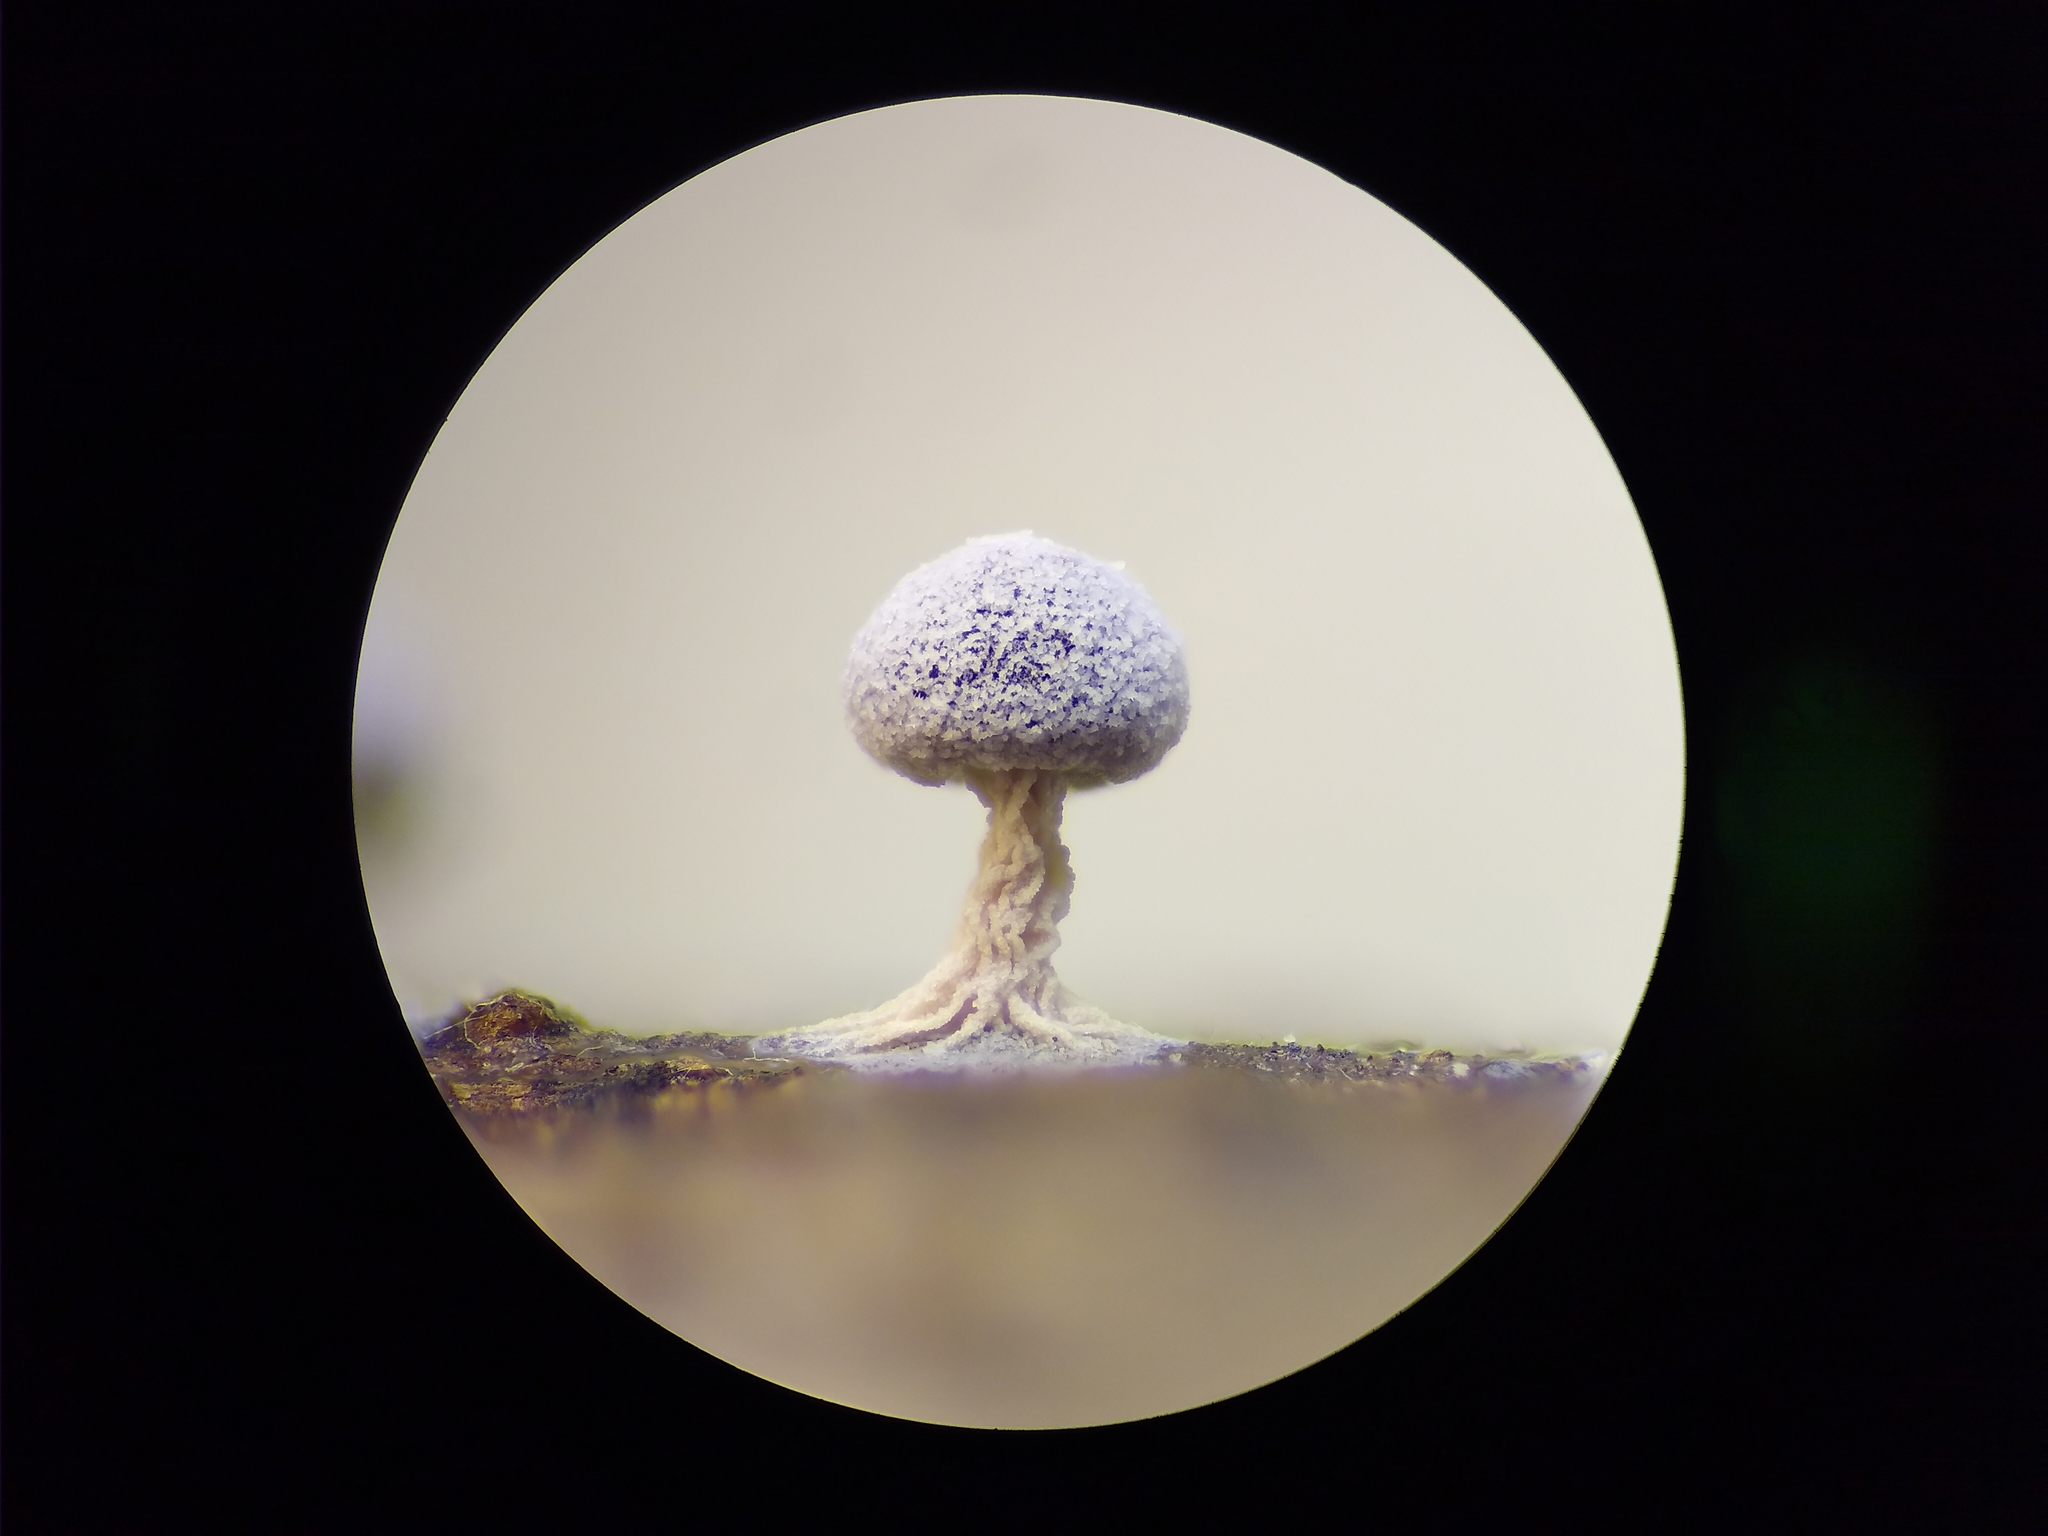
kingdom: Protozoa
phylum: Mycetozoa
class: Myxomycetes
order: Physarales
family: Didymiaceae
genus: Didymium
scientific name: Didymium squamulosum
